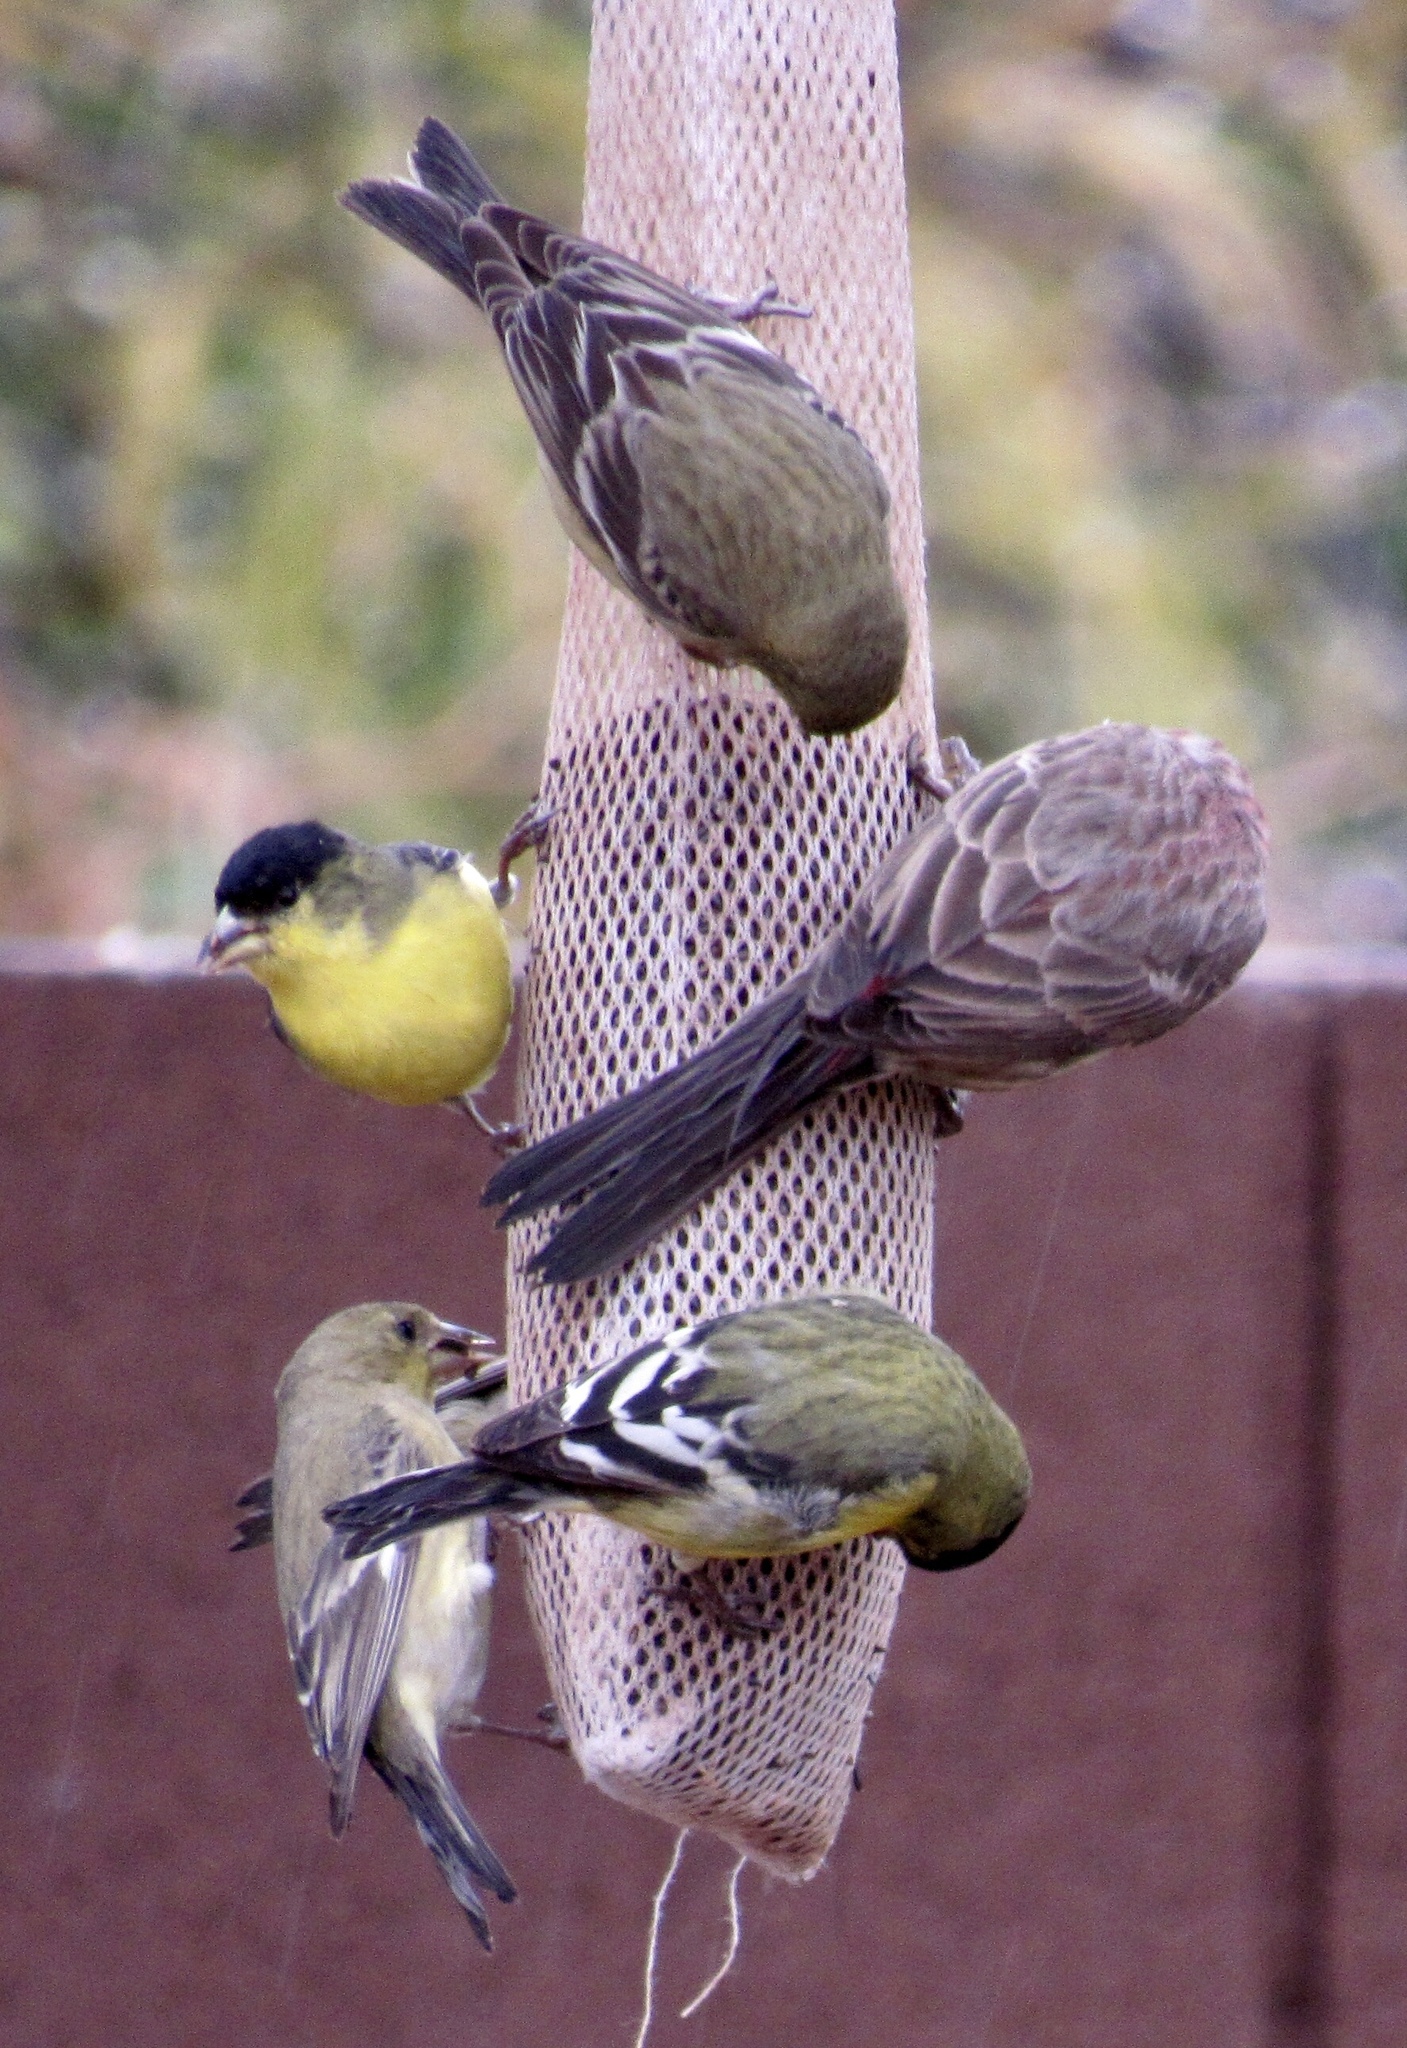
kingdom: Animalia
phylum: Chordata
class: Aves
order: Passeriformes
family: Fringillidae
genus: Haemorhous
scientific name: Haemorhous mexicanus
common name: House finch
